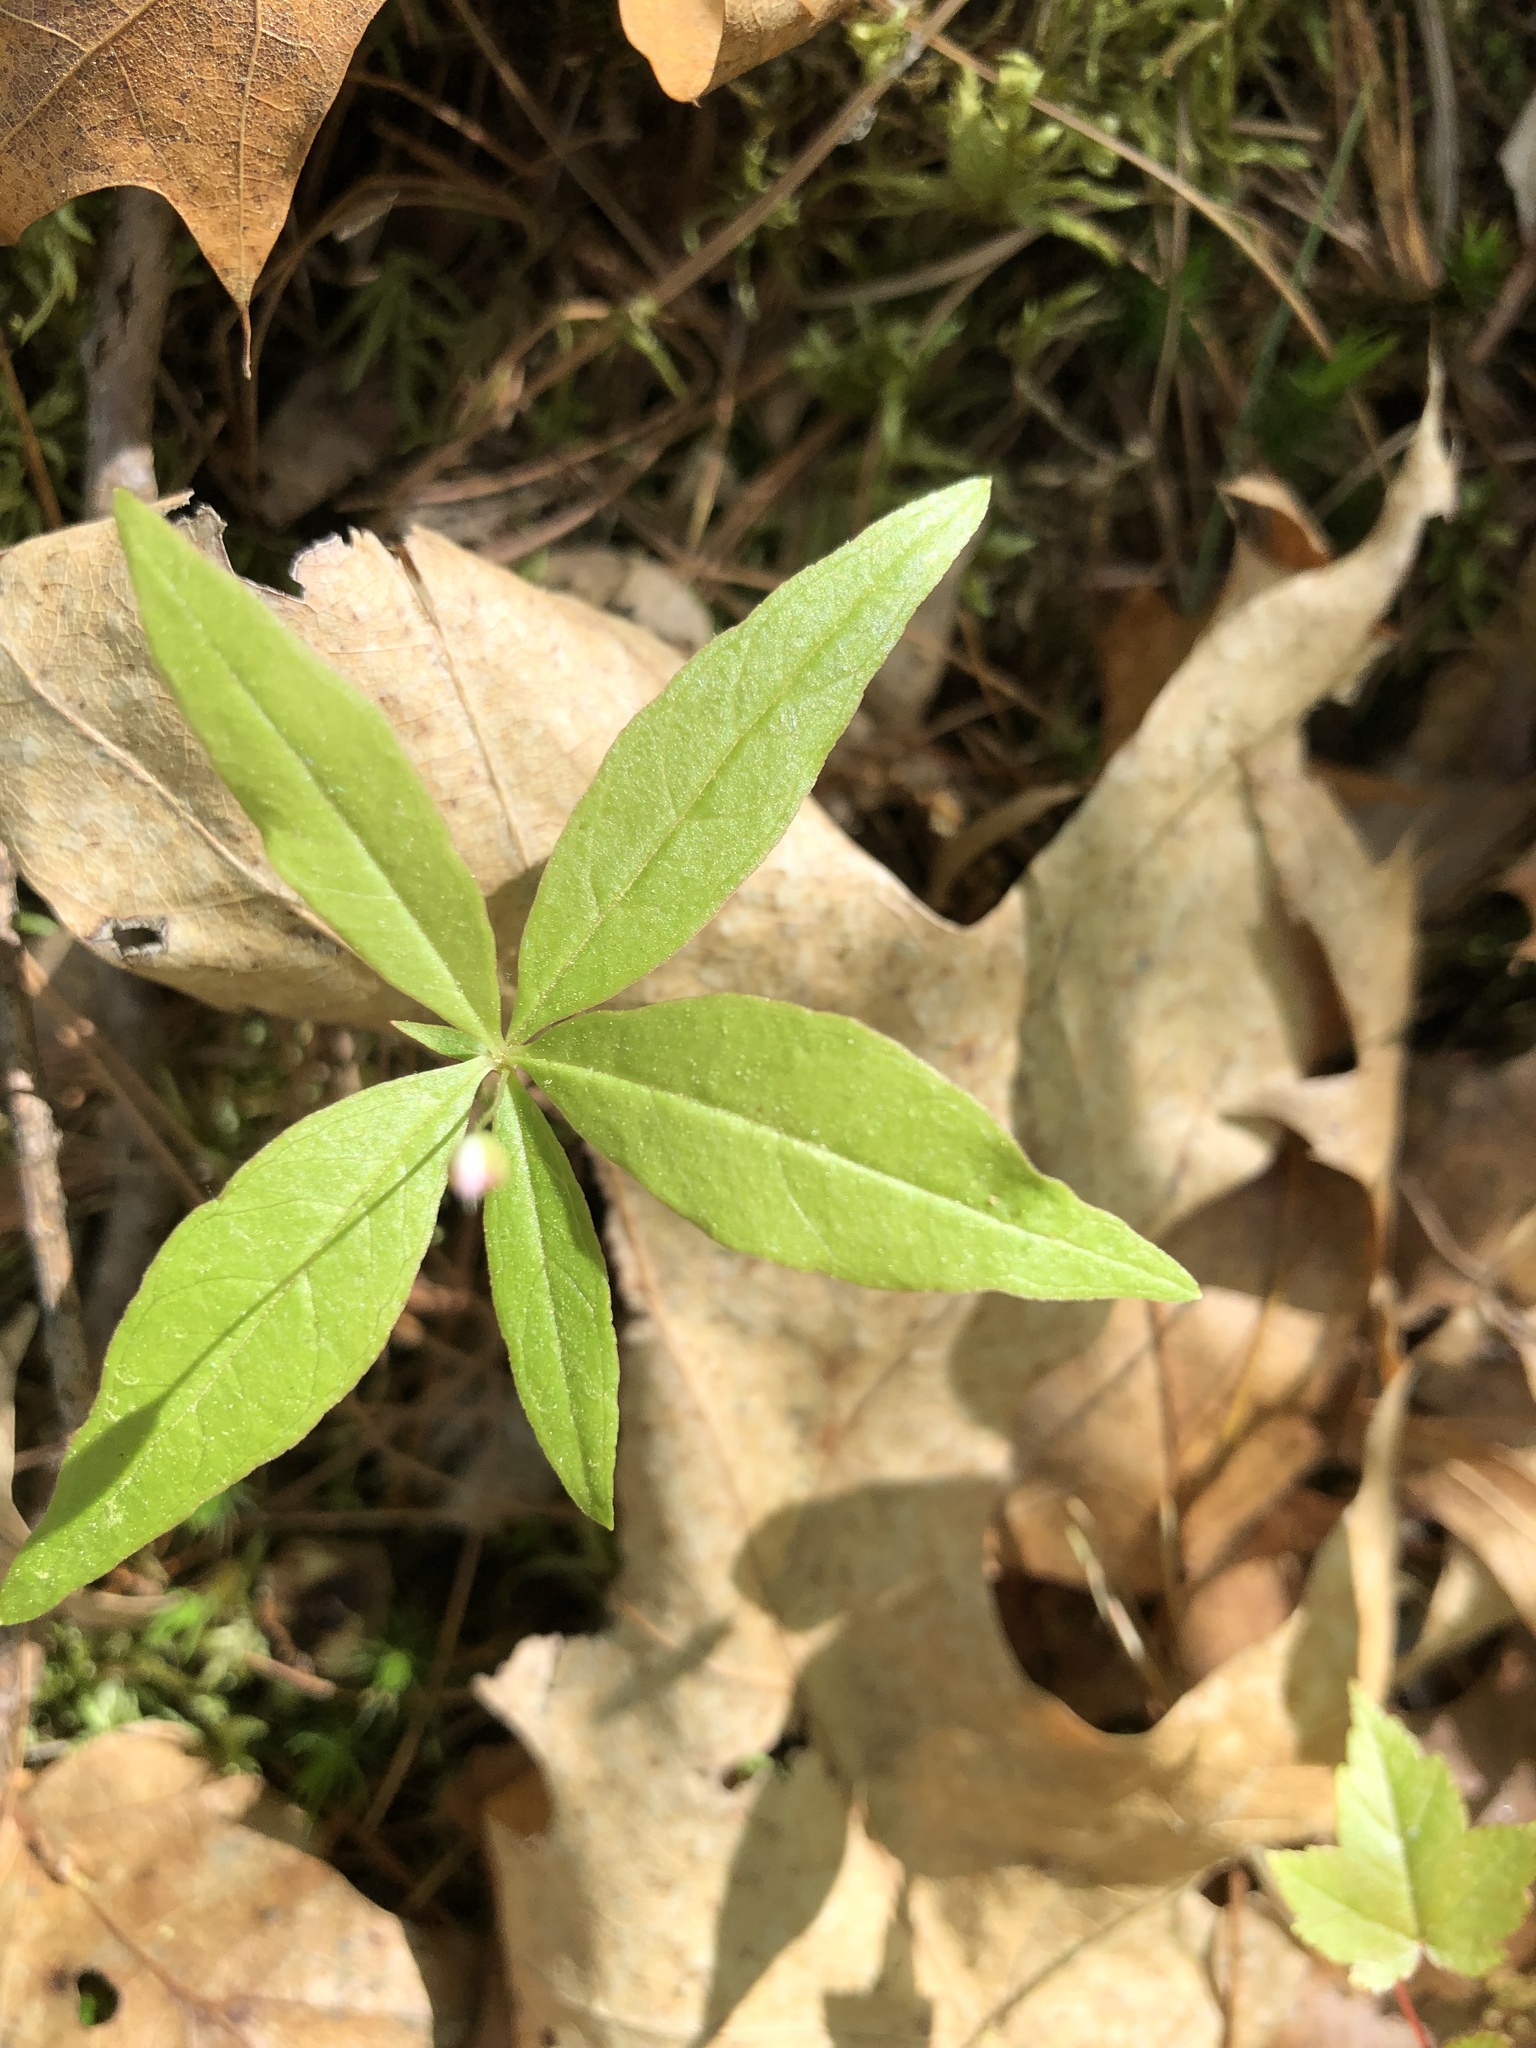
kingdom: Plantae
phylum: Tracheophyta
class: Magnoliopsida
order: Ericales
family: Primulaceae
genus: Lysimachia
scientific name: Lysimachia borealis
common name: American starflower
